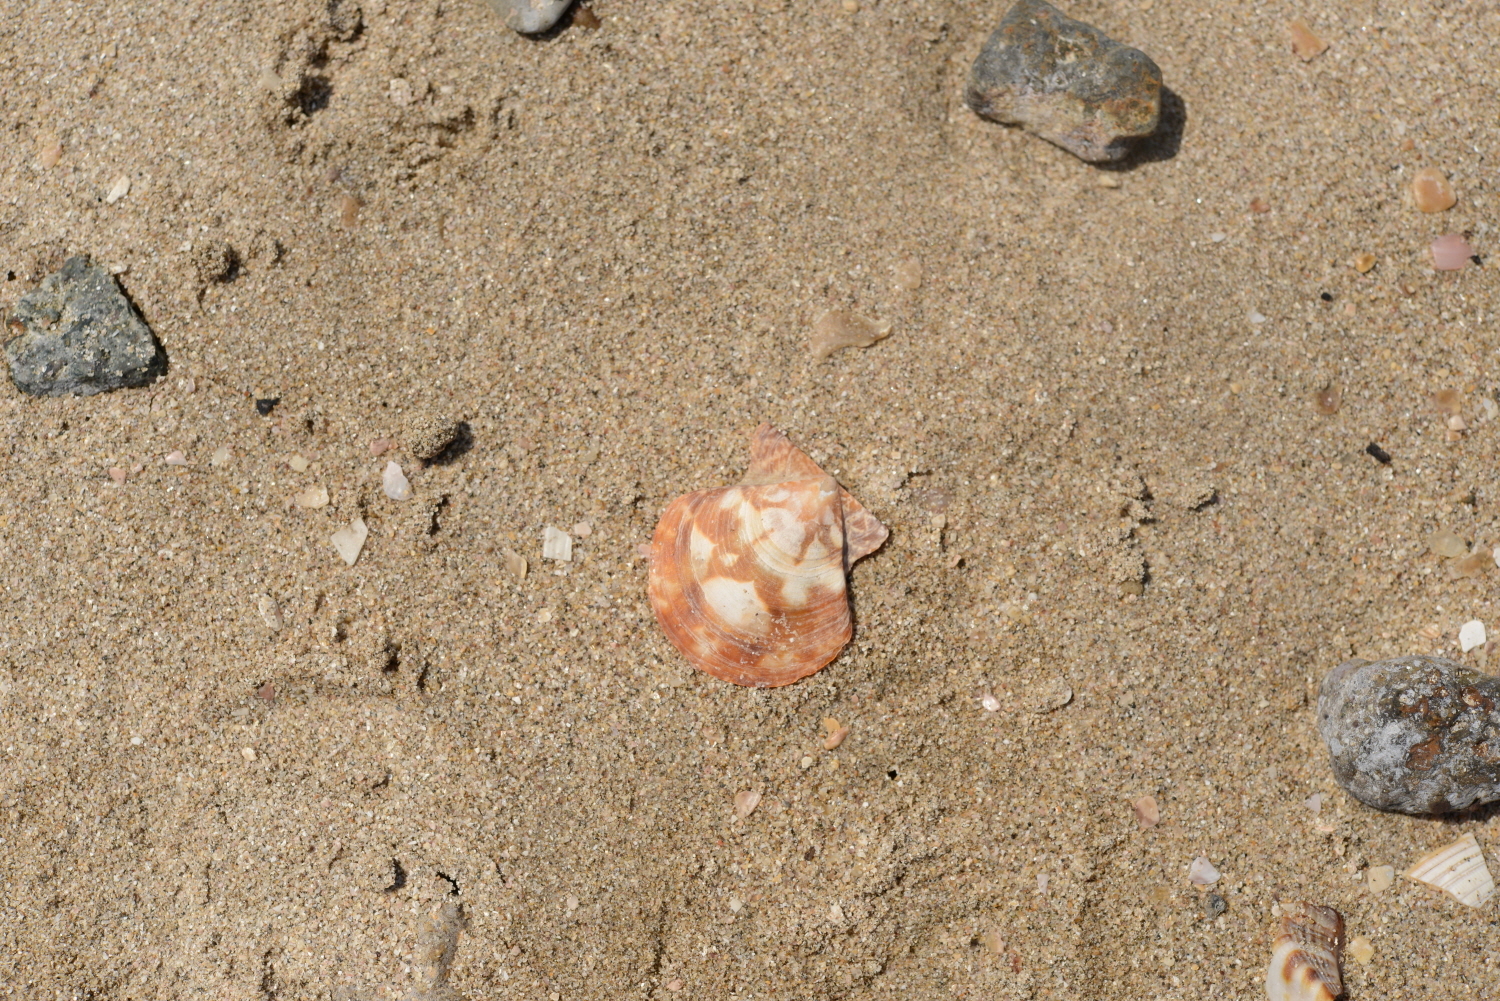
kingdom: Animalia
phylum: Mollusca
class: Bivalvia
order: Pectinida
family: Pectinidae
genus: Volachlamys
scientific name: Volachlamys hirasei
